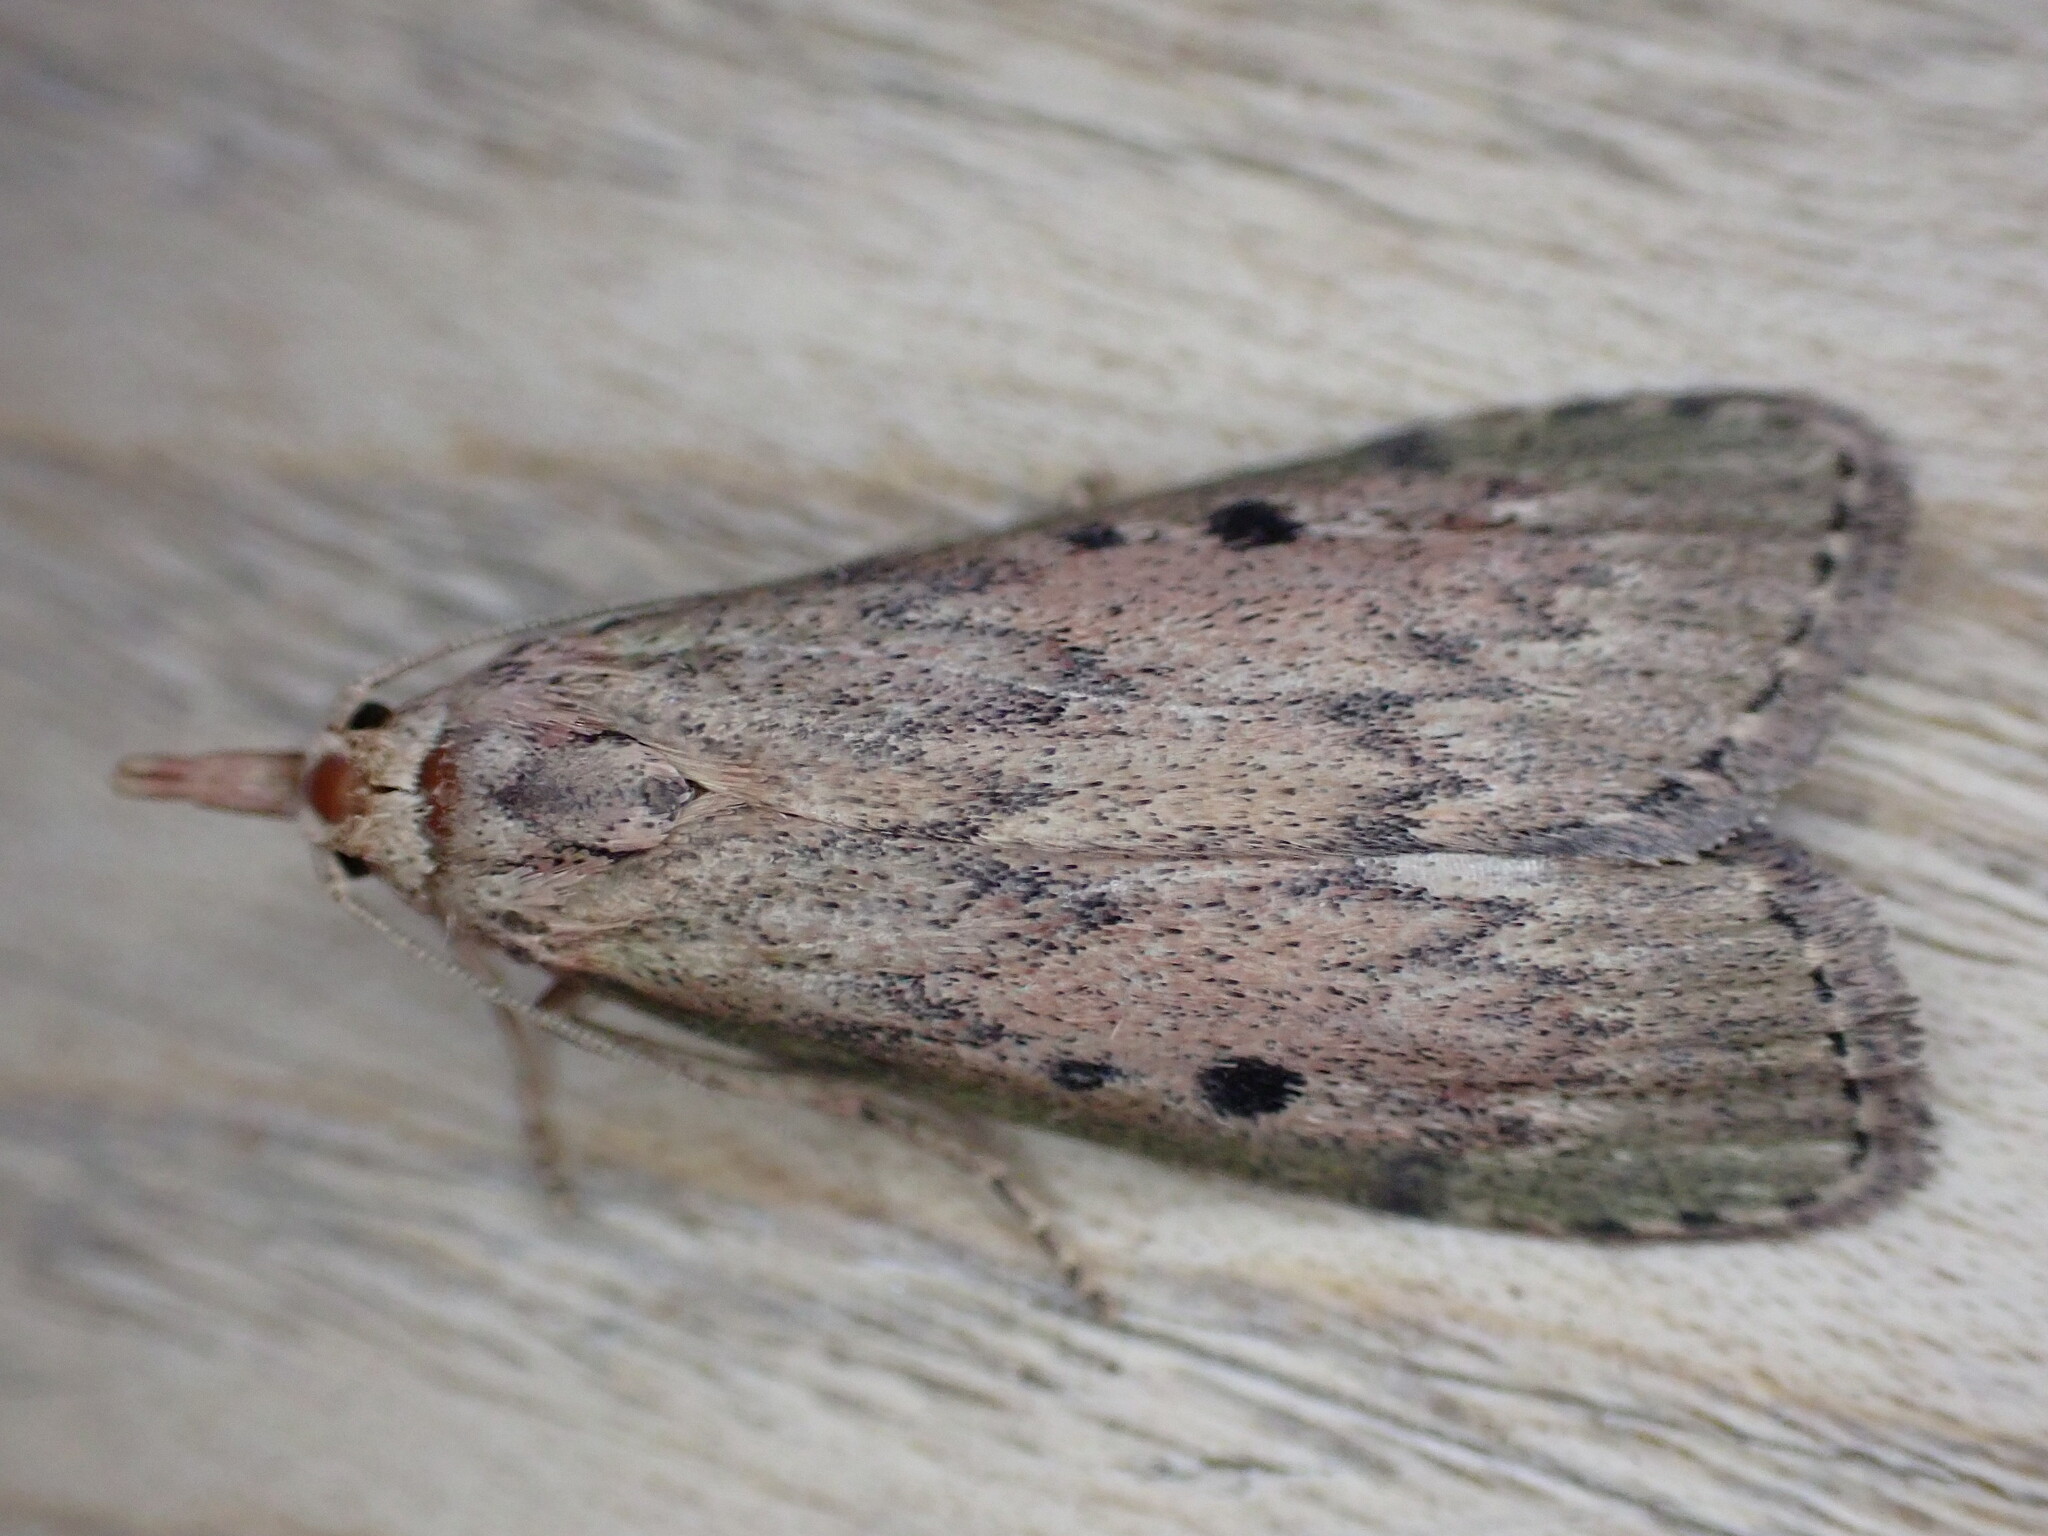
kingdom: Animalia
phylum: Arthropoda
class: Insecta
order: Lepidoptera
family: Pyralidae
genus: Aphomia
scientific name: Aphomia sociella
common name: Bee moth
